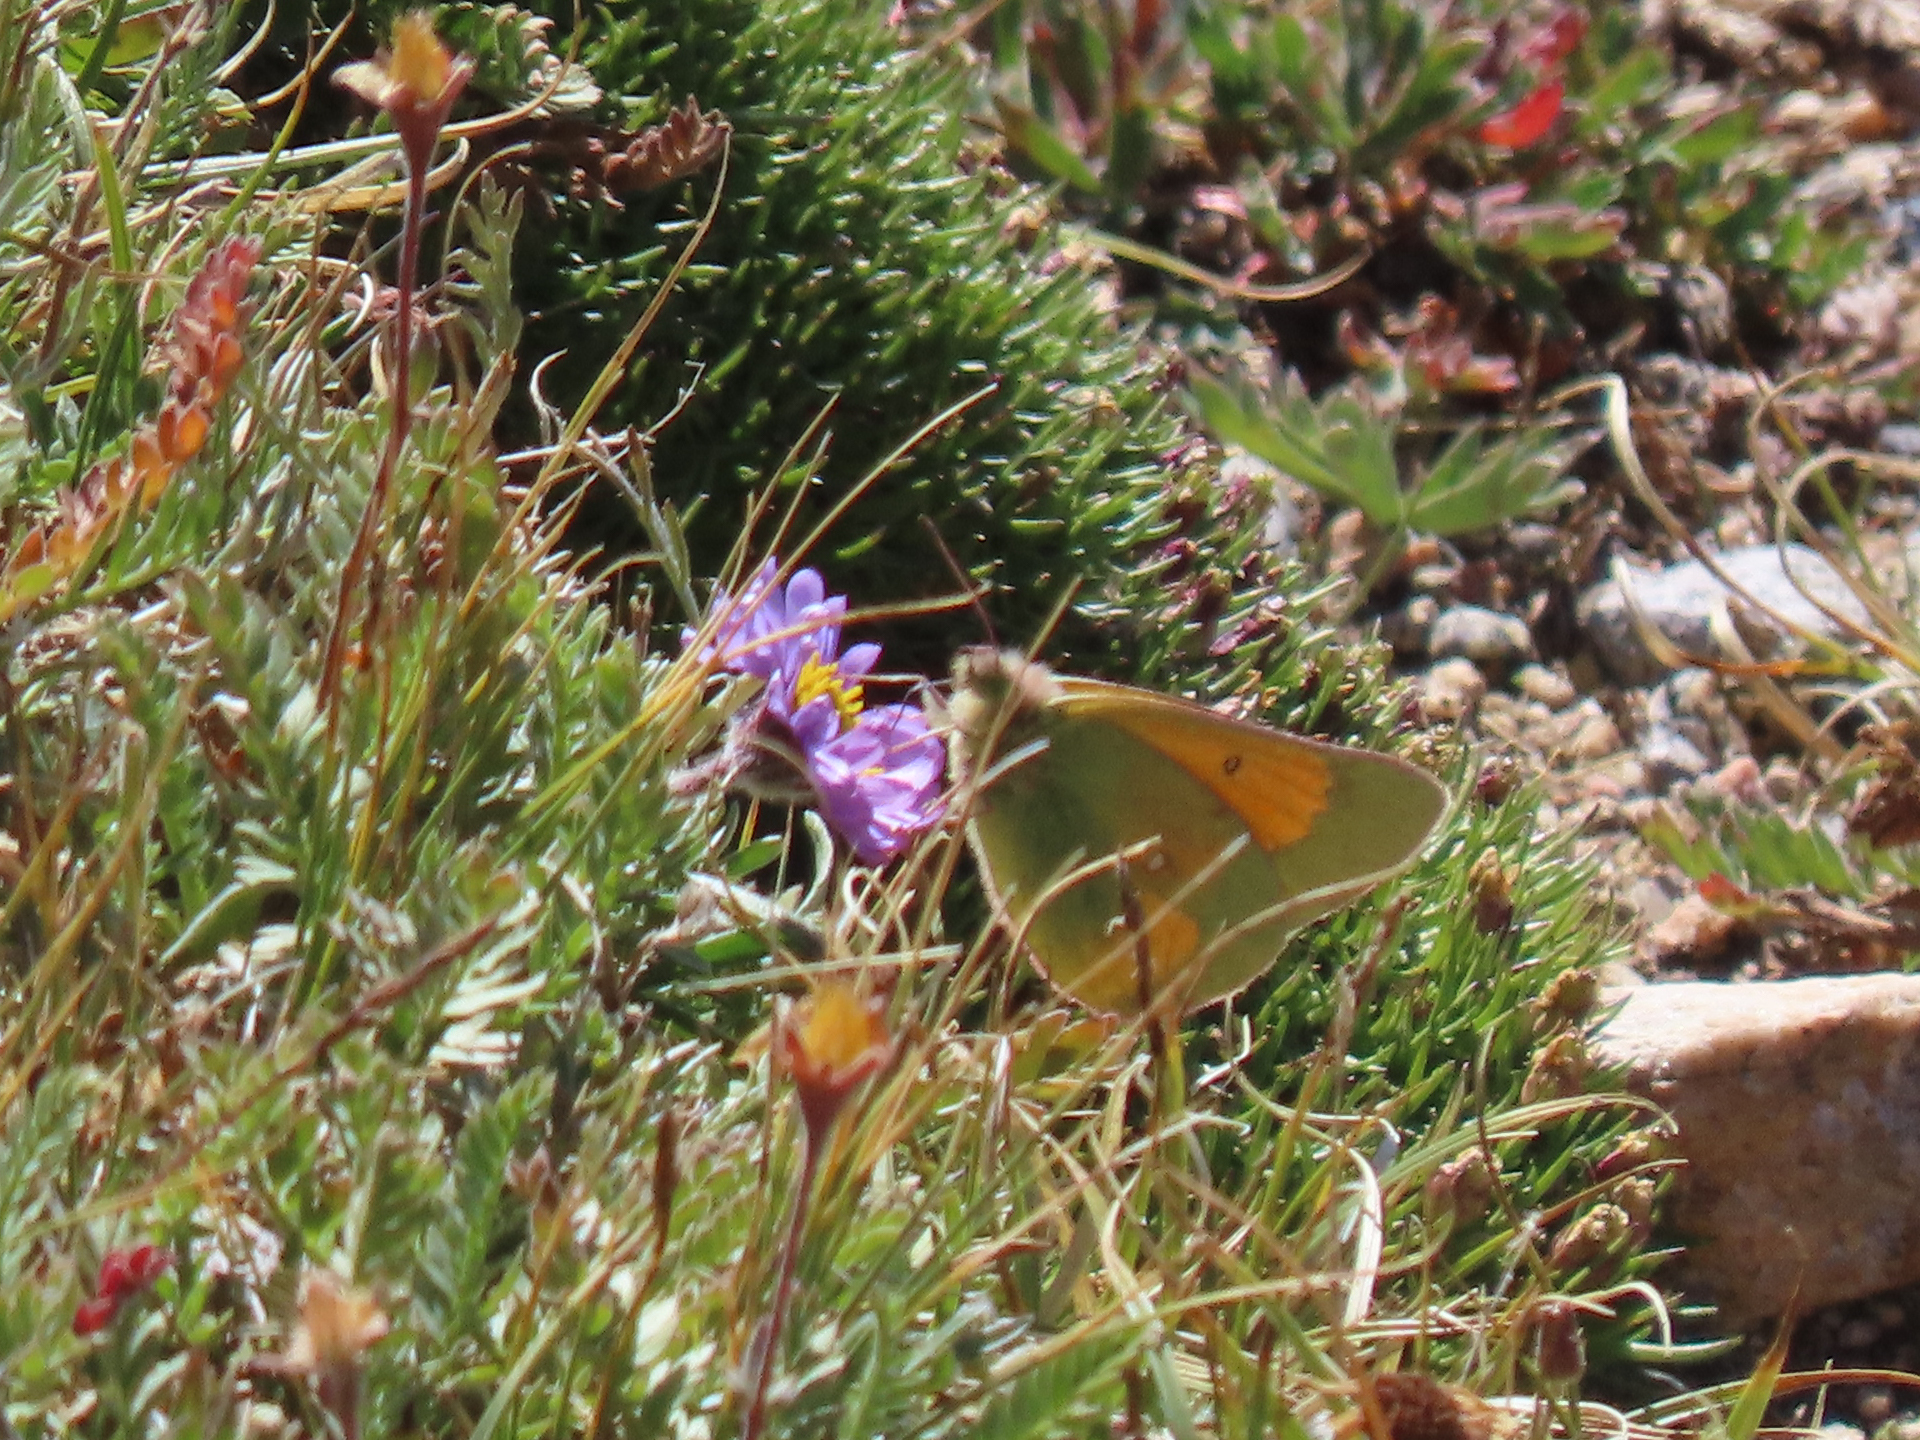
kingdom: Animalia
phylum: Arthropoda
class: Insecta
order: Lepidoptera
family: Pieridae
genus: Colias
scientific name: Colias meadii
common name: Mead's sulphur
